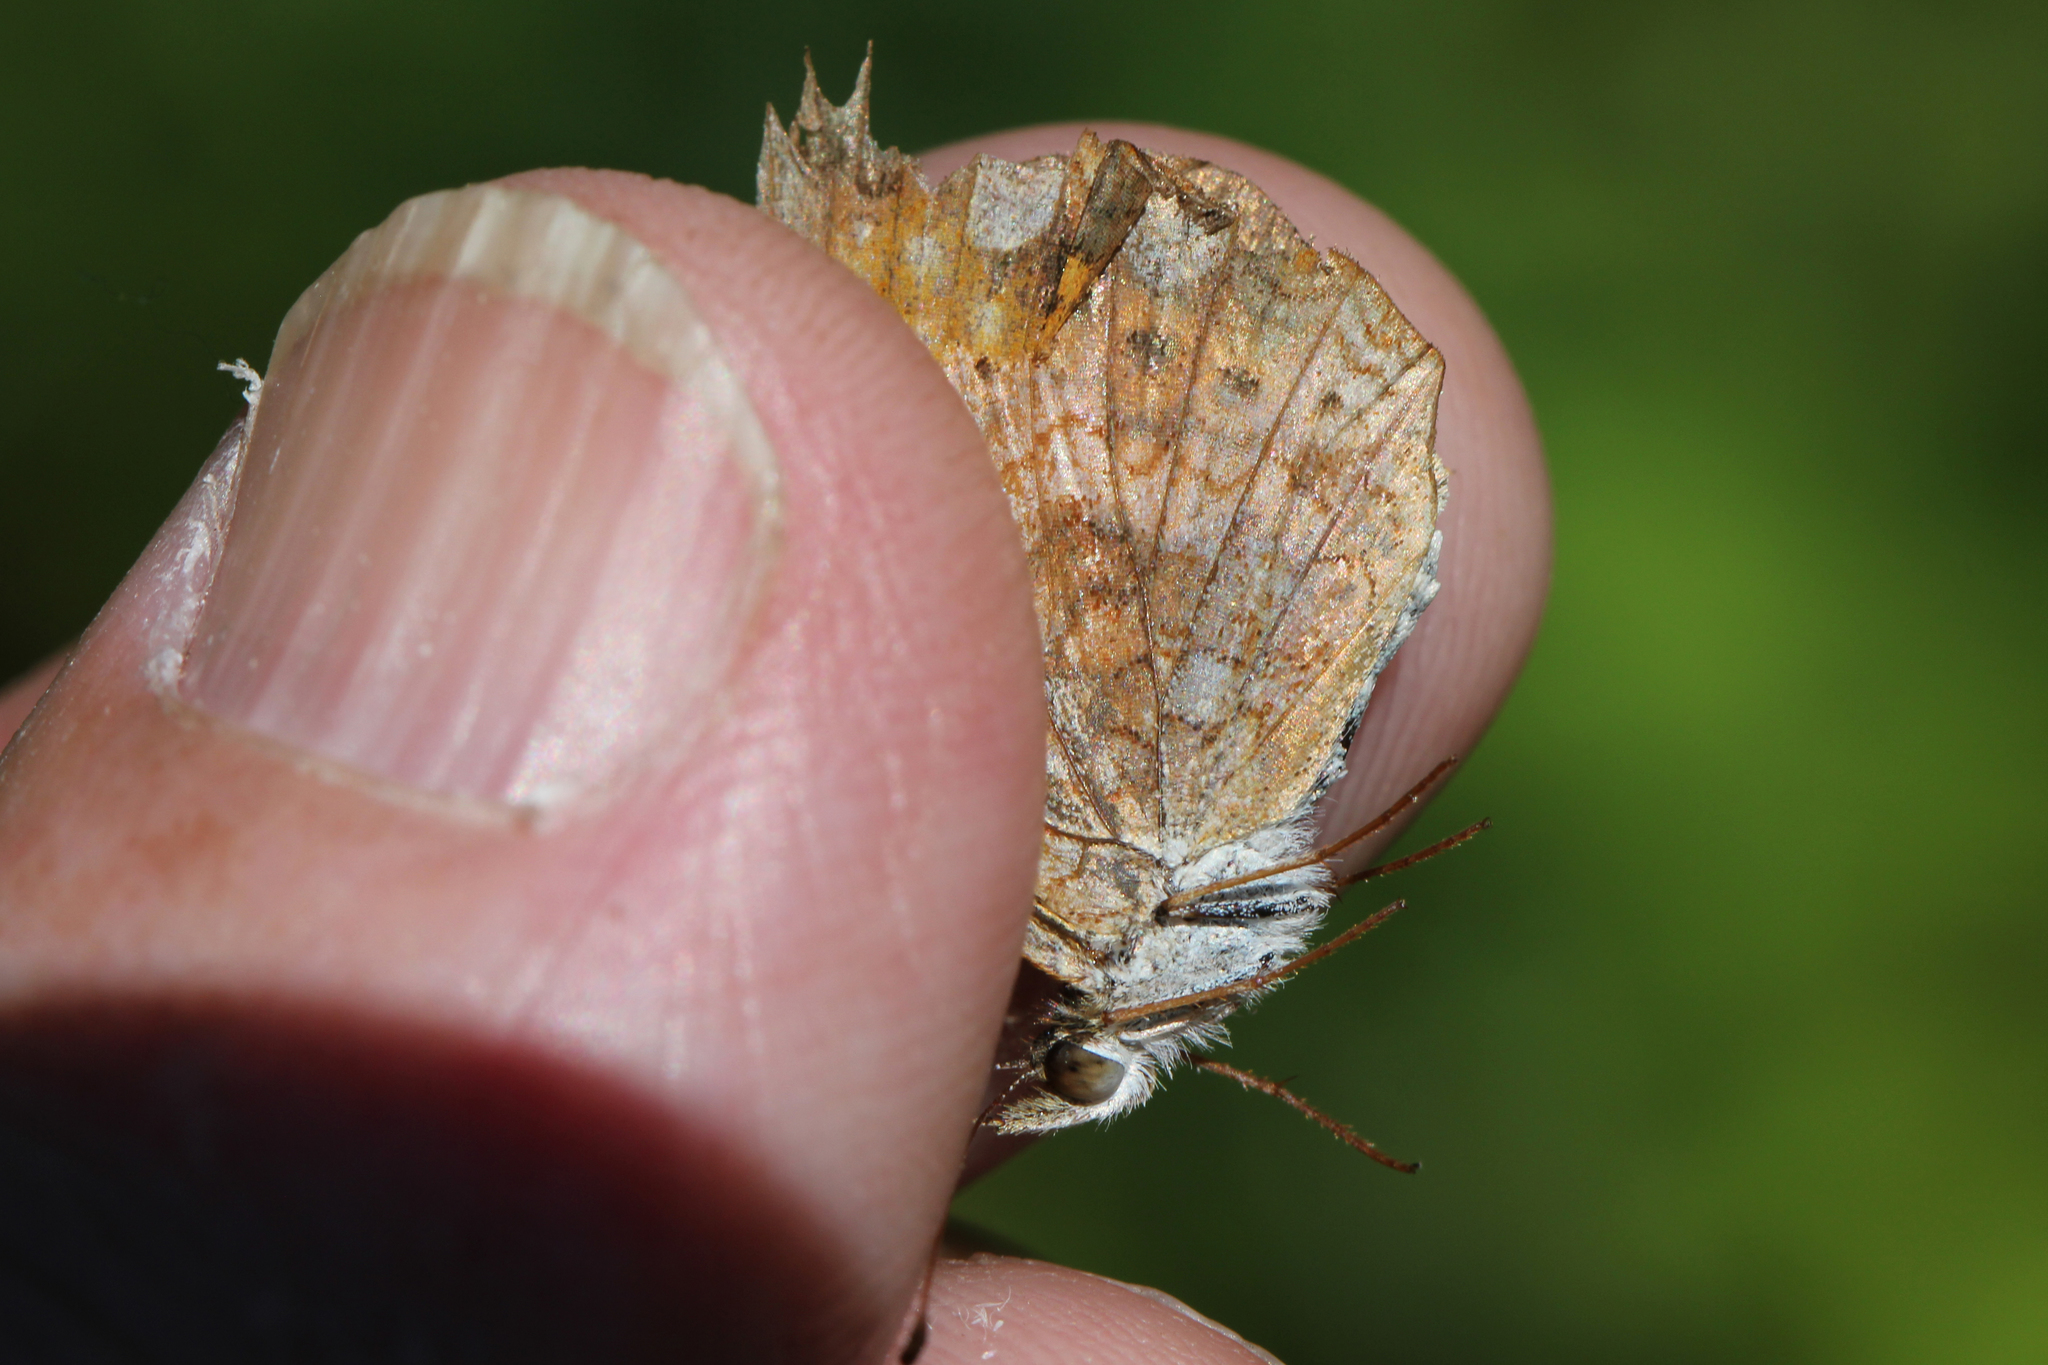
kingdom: Animalia
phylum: Arthropoda
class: Insecta
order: Lepidoptera
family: Nymphalidae
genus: Phyciodes
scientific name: Phyciodes tharos
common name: Pearl crescent
